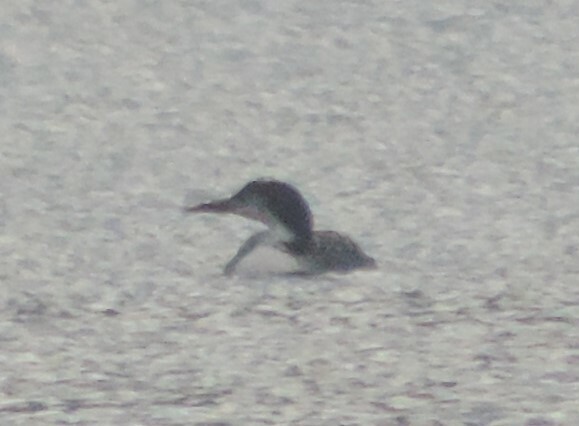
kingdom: Animalia
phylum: Chordata
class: Aves
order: Gaviiformes
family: Gaviidae
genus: Gavia
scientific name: Gavia immer
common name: Common loon
